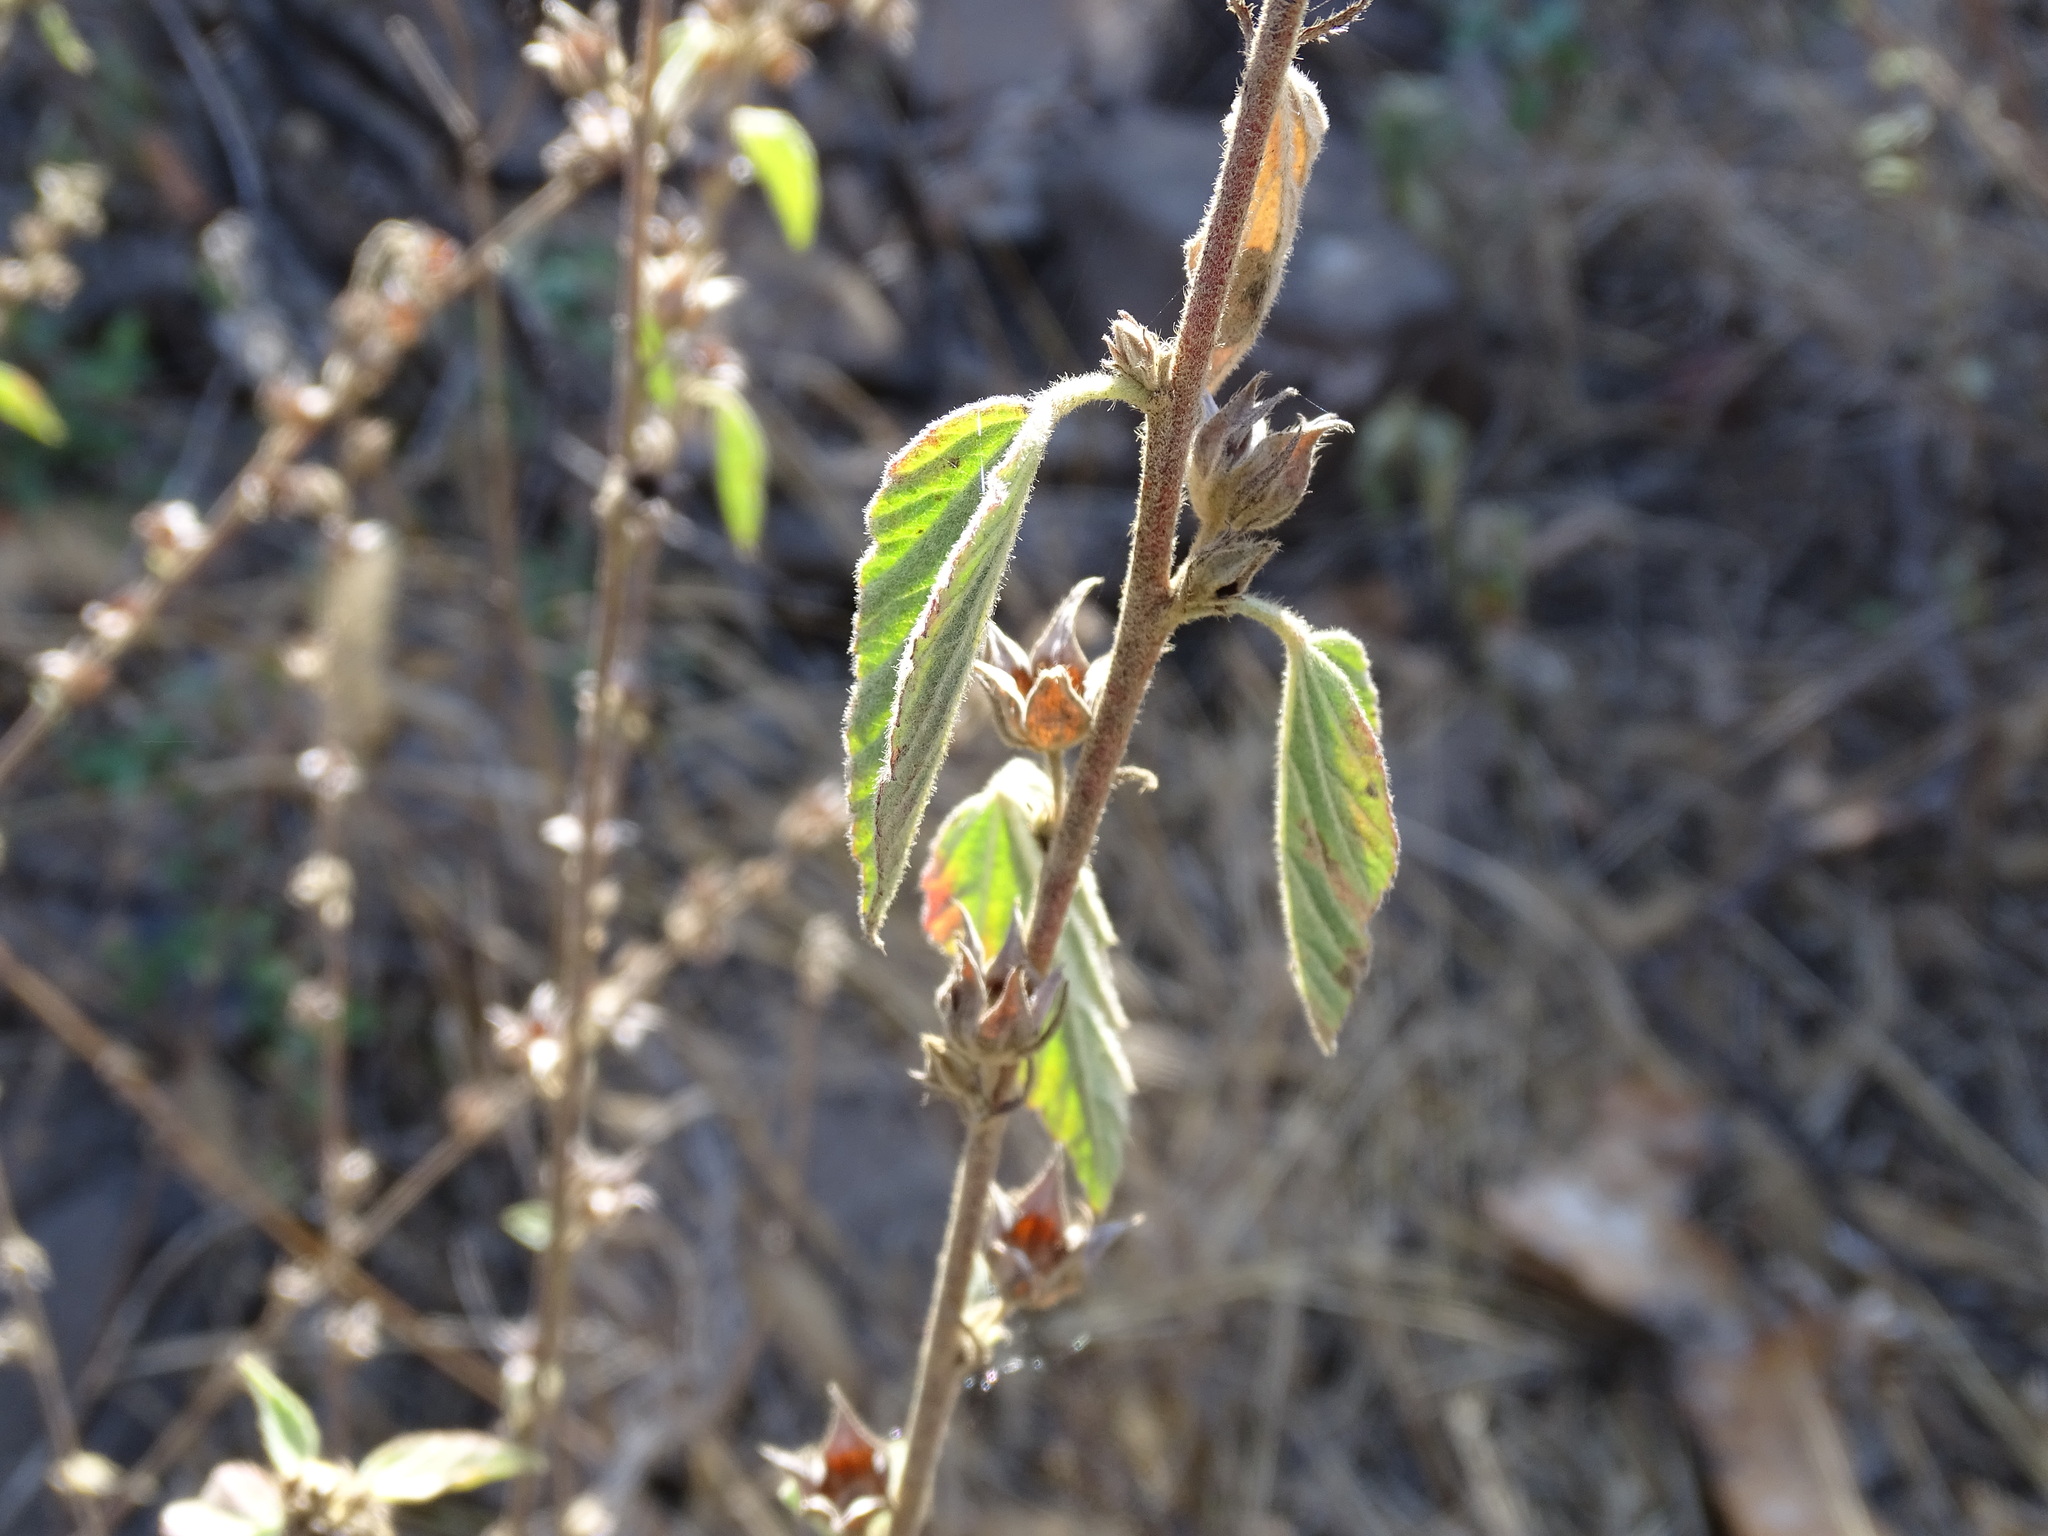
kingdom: Plantae
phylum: Tracheophyta
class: Magnoliopsida
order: Malvales
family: Malvaceae
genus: Malvastrum
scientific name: Malvastrum americanum
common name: Spiked malvastrum
